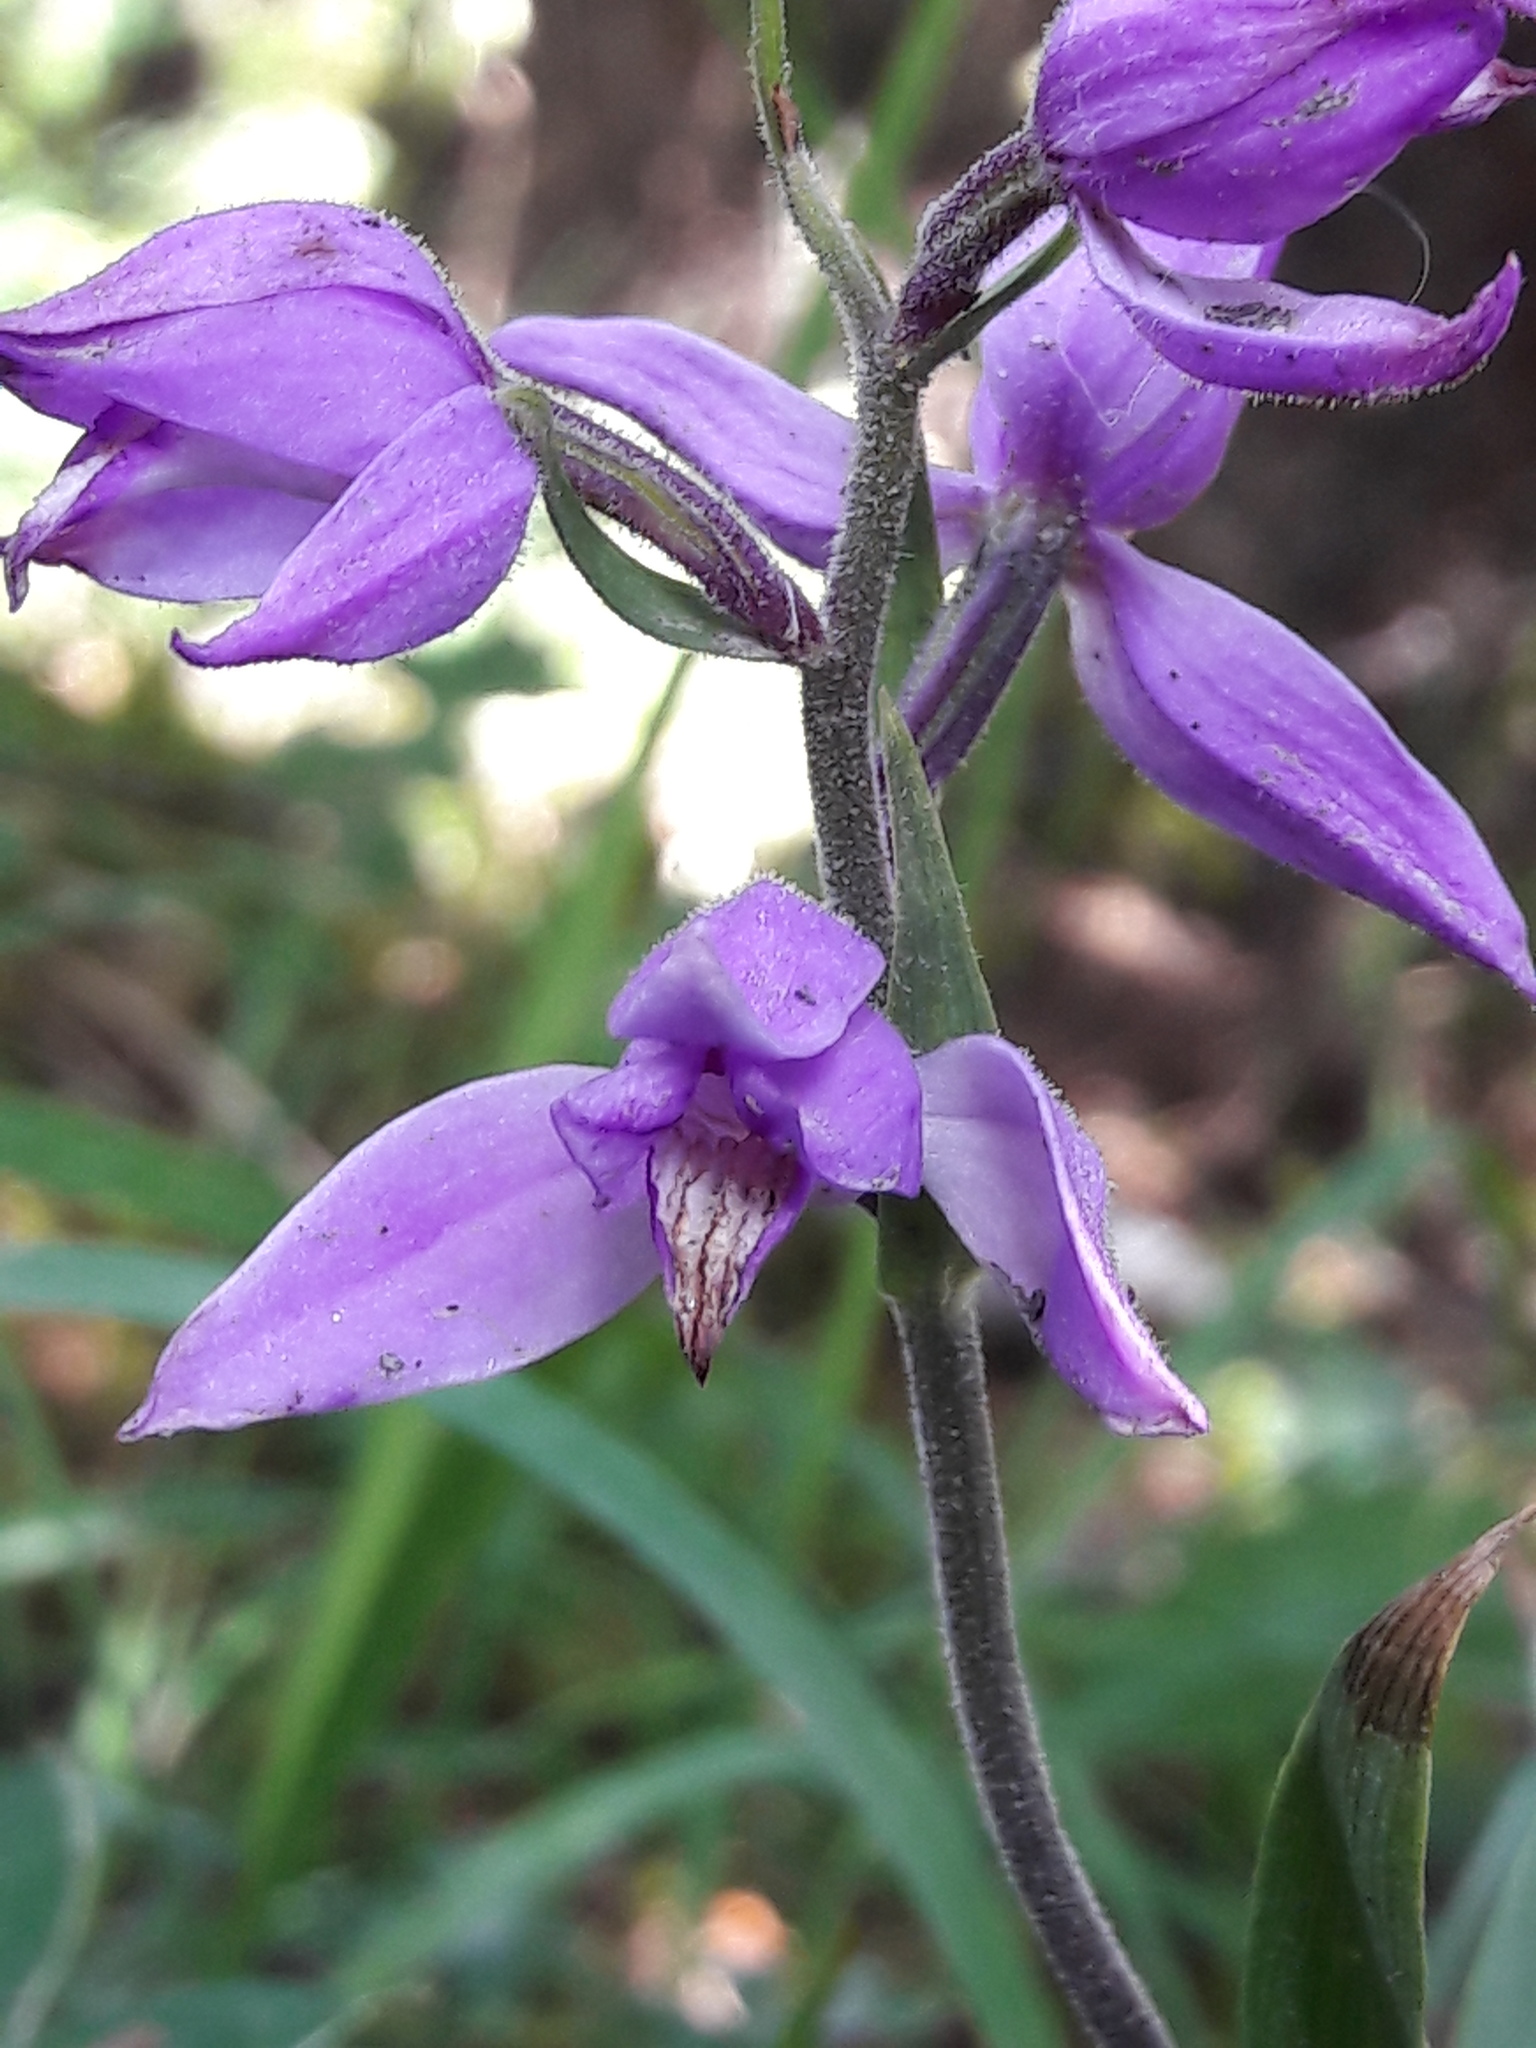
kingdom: Plantae
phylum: Tracheophyta
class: Liliopsida
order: Asparagales
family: Orchidaceae
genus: Cephalanthera
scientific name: Cephalanthera rubra
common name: Red helleborine
